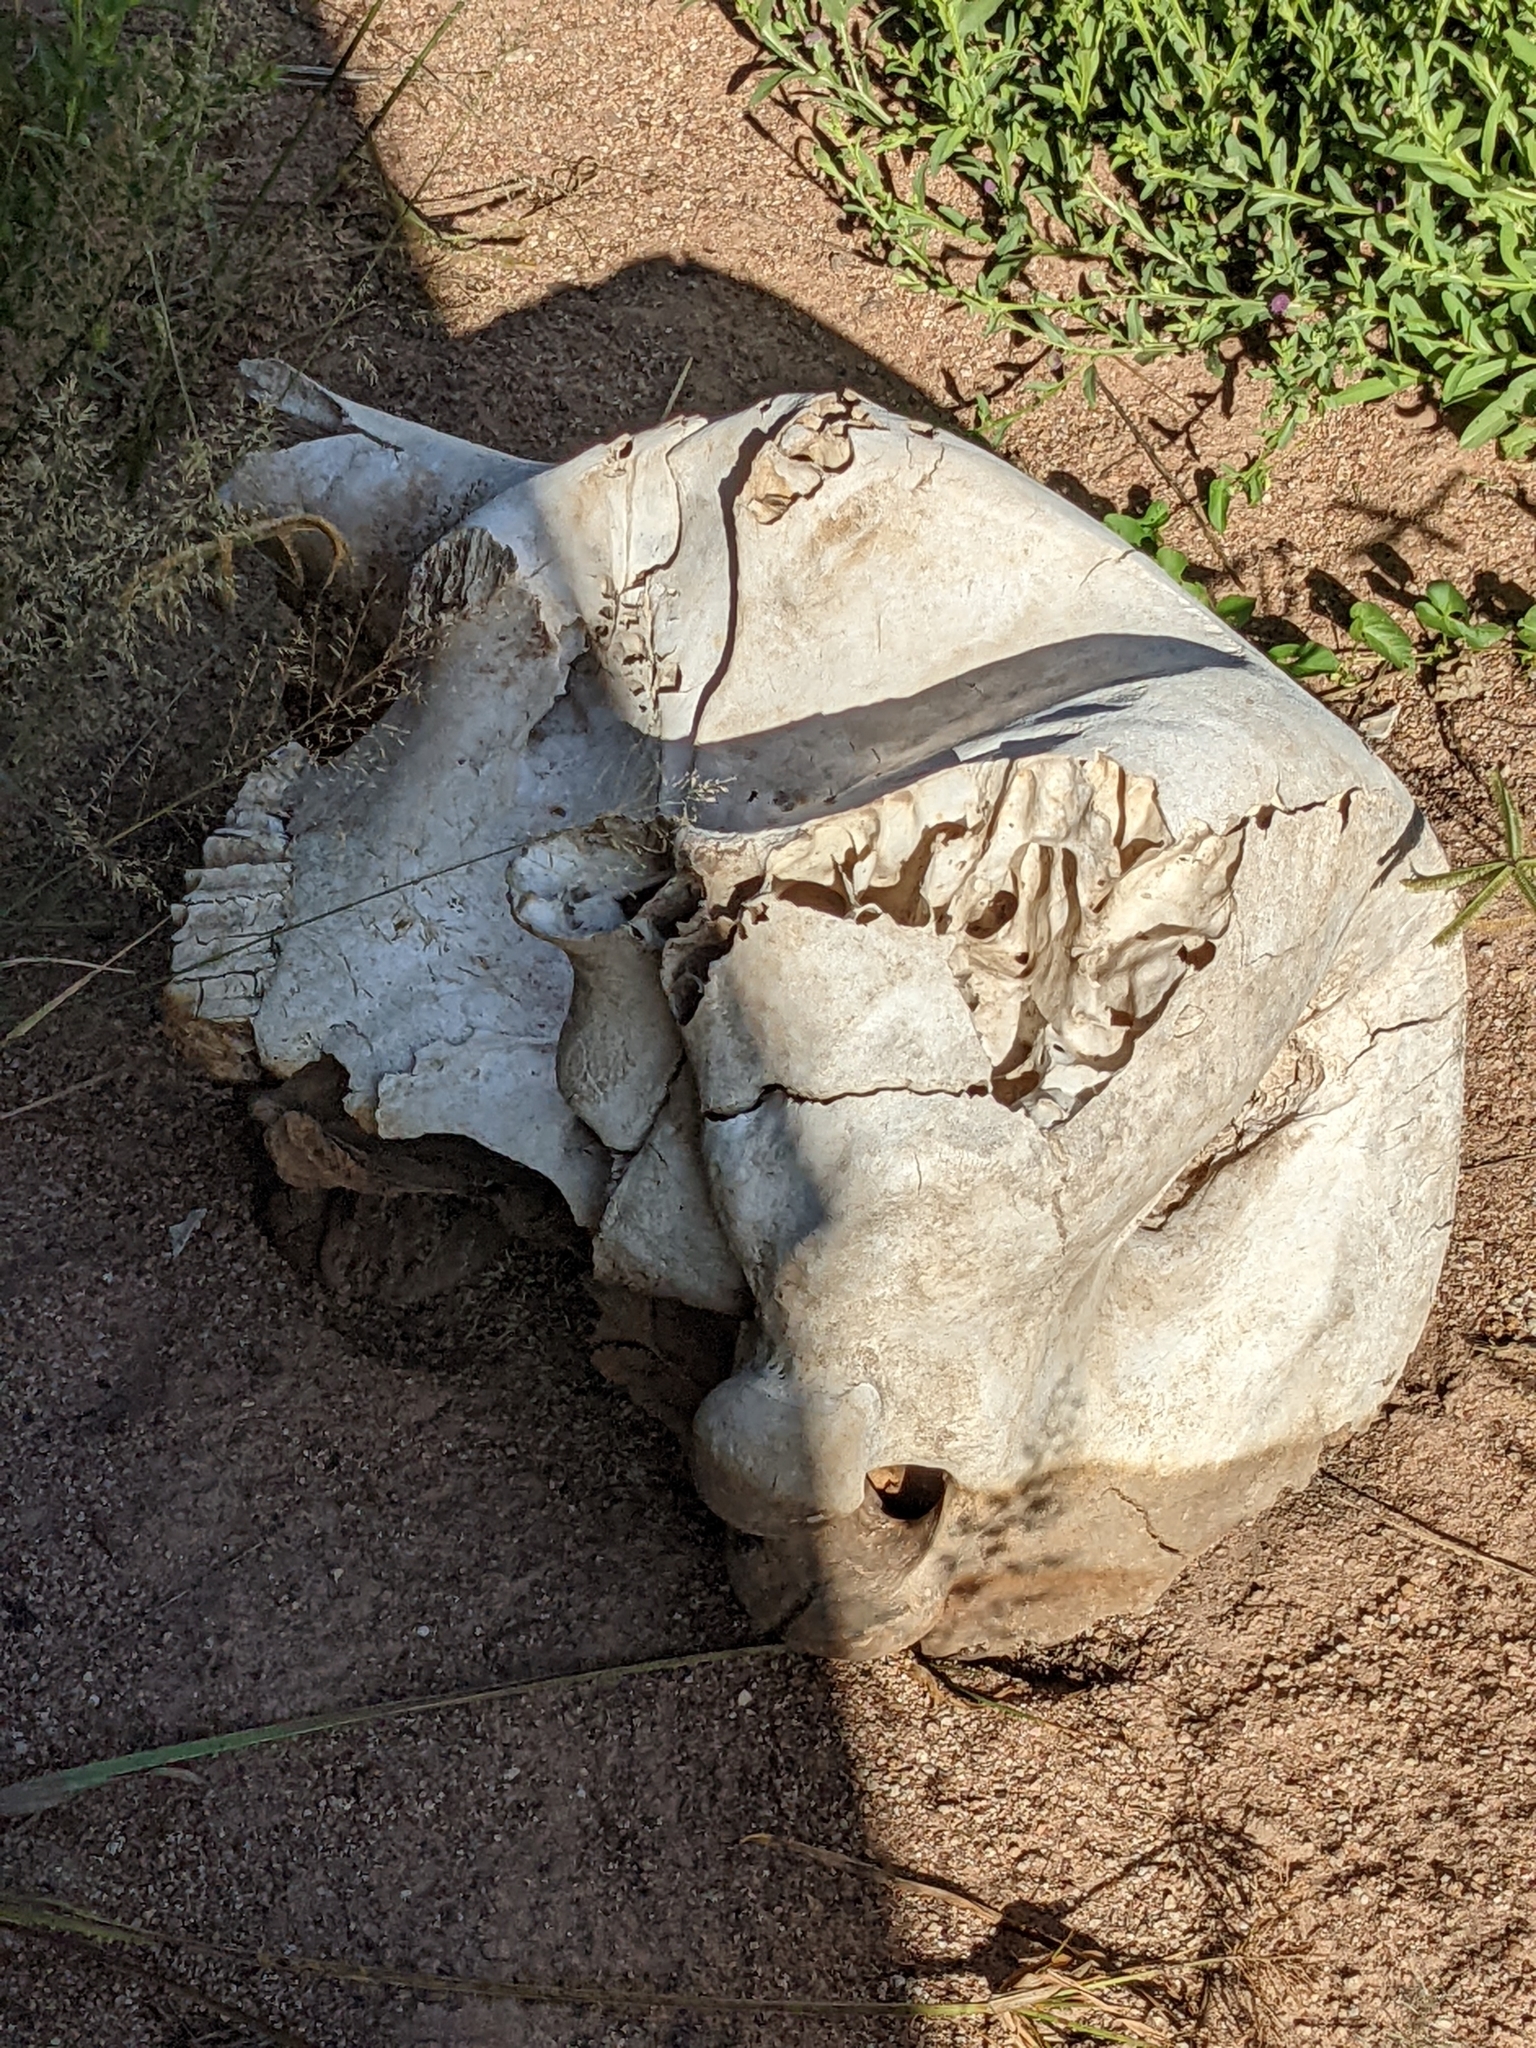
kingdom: Animalia
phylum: Chordata
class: Mammalia
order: Proboscidea
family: Elephantidae
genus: Loxodonta
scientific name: Loxodonta africana
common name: African elephant
